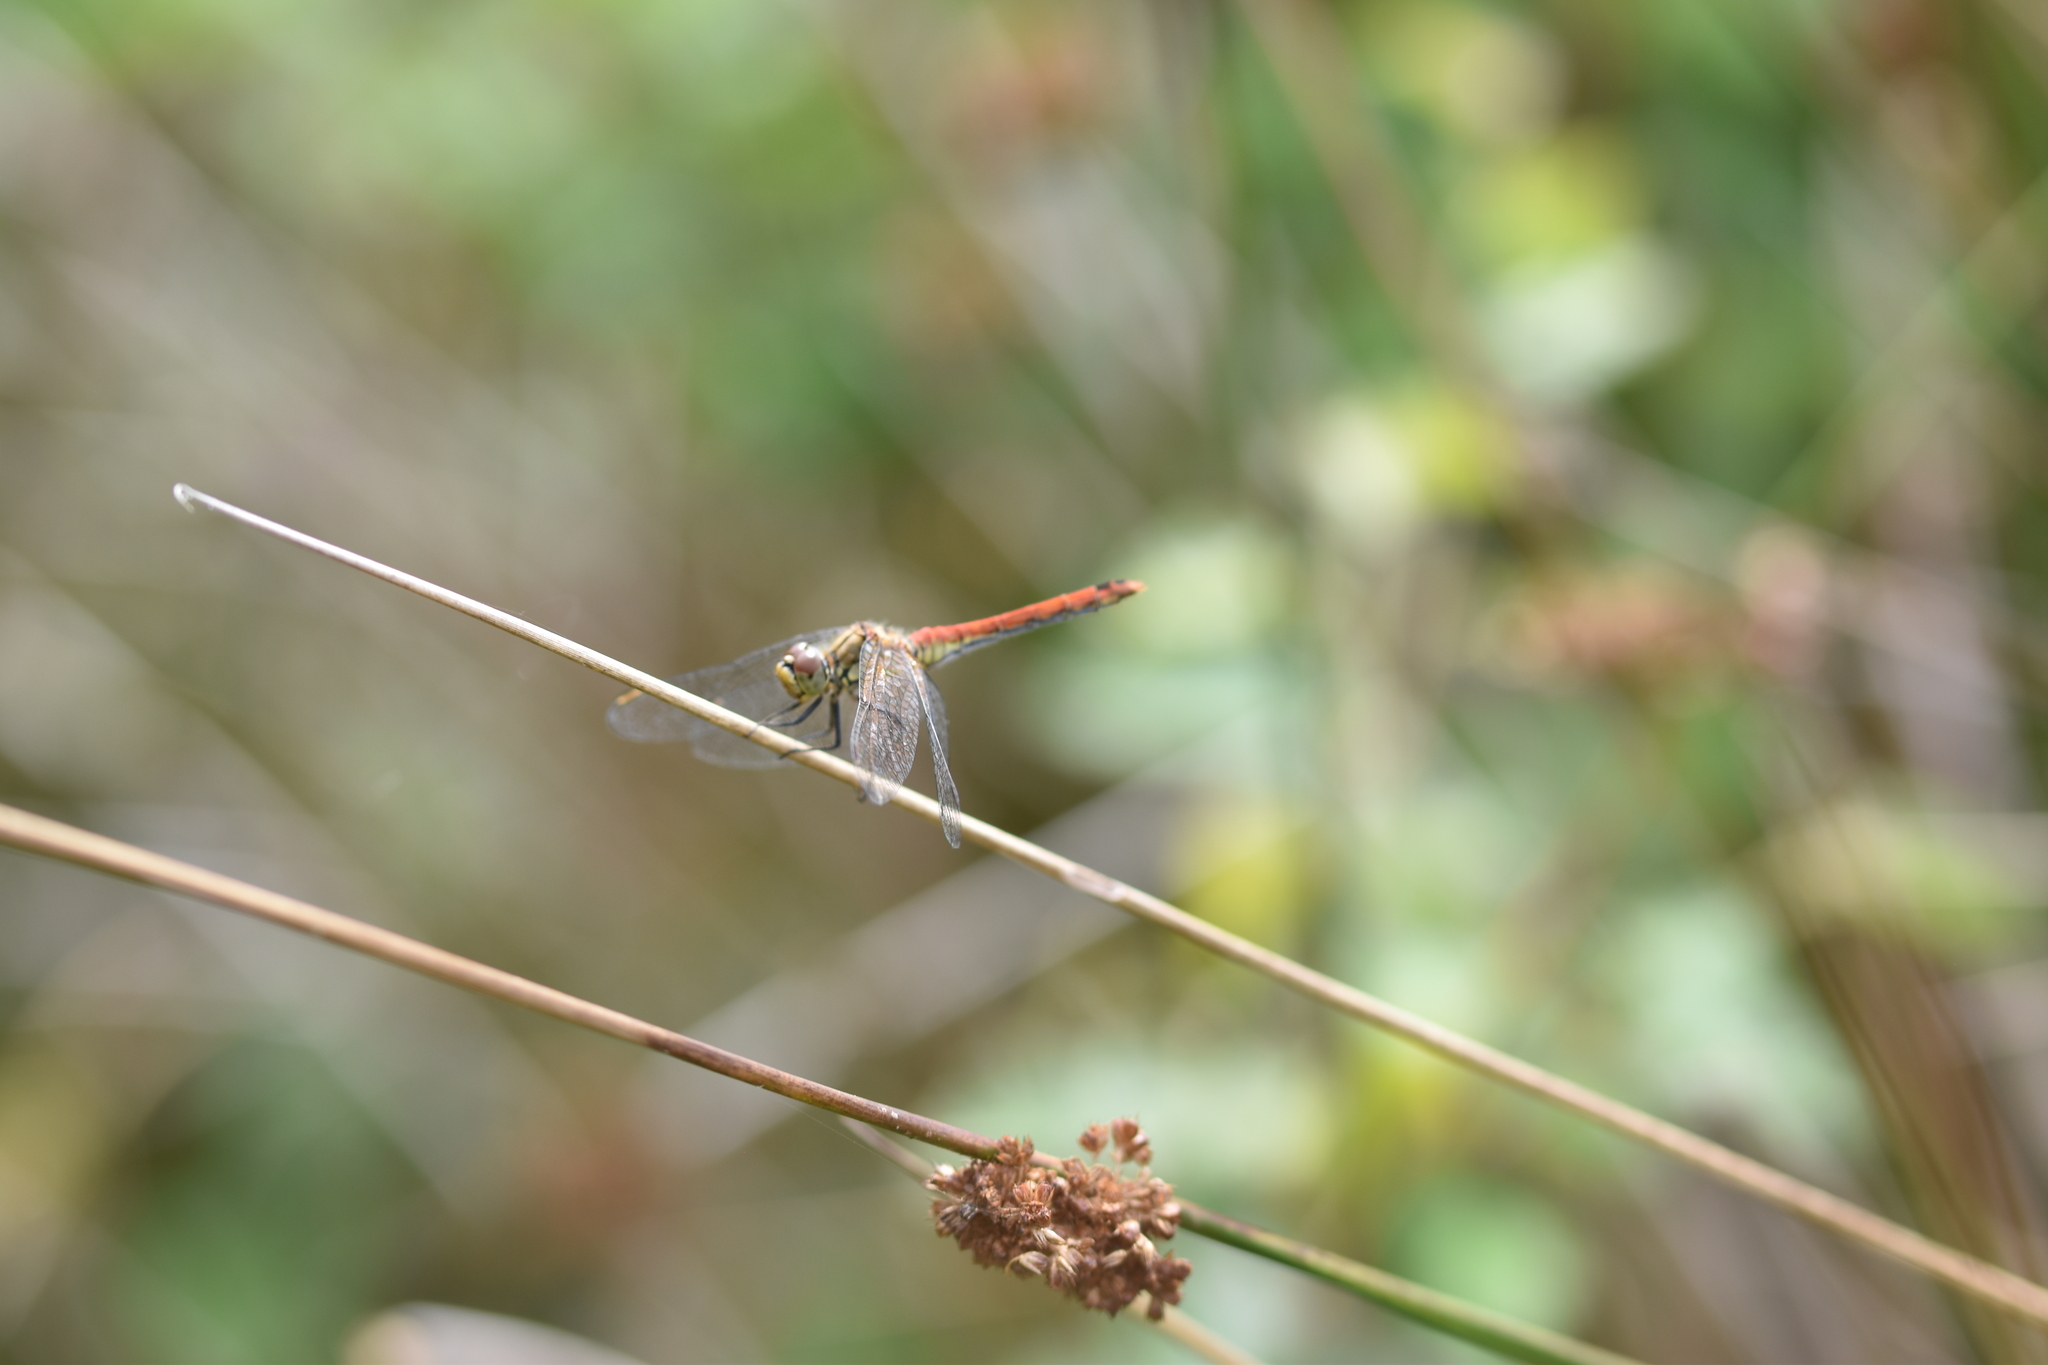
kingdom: Animalia
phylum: Arthropoda
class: Insecta
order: Odonata
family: Libellulidae
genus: Sympetrum
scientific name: Sympetrum sanguineum
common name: Ruddy darter
